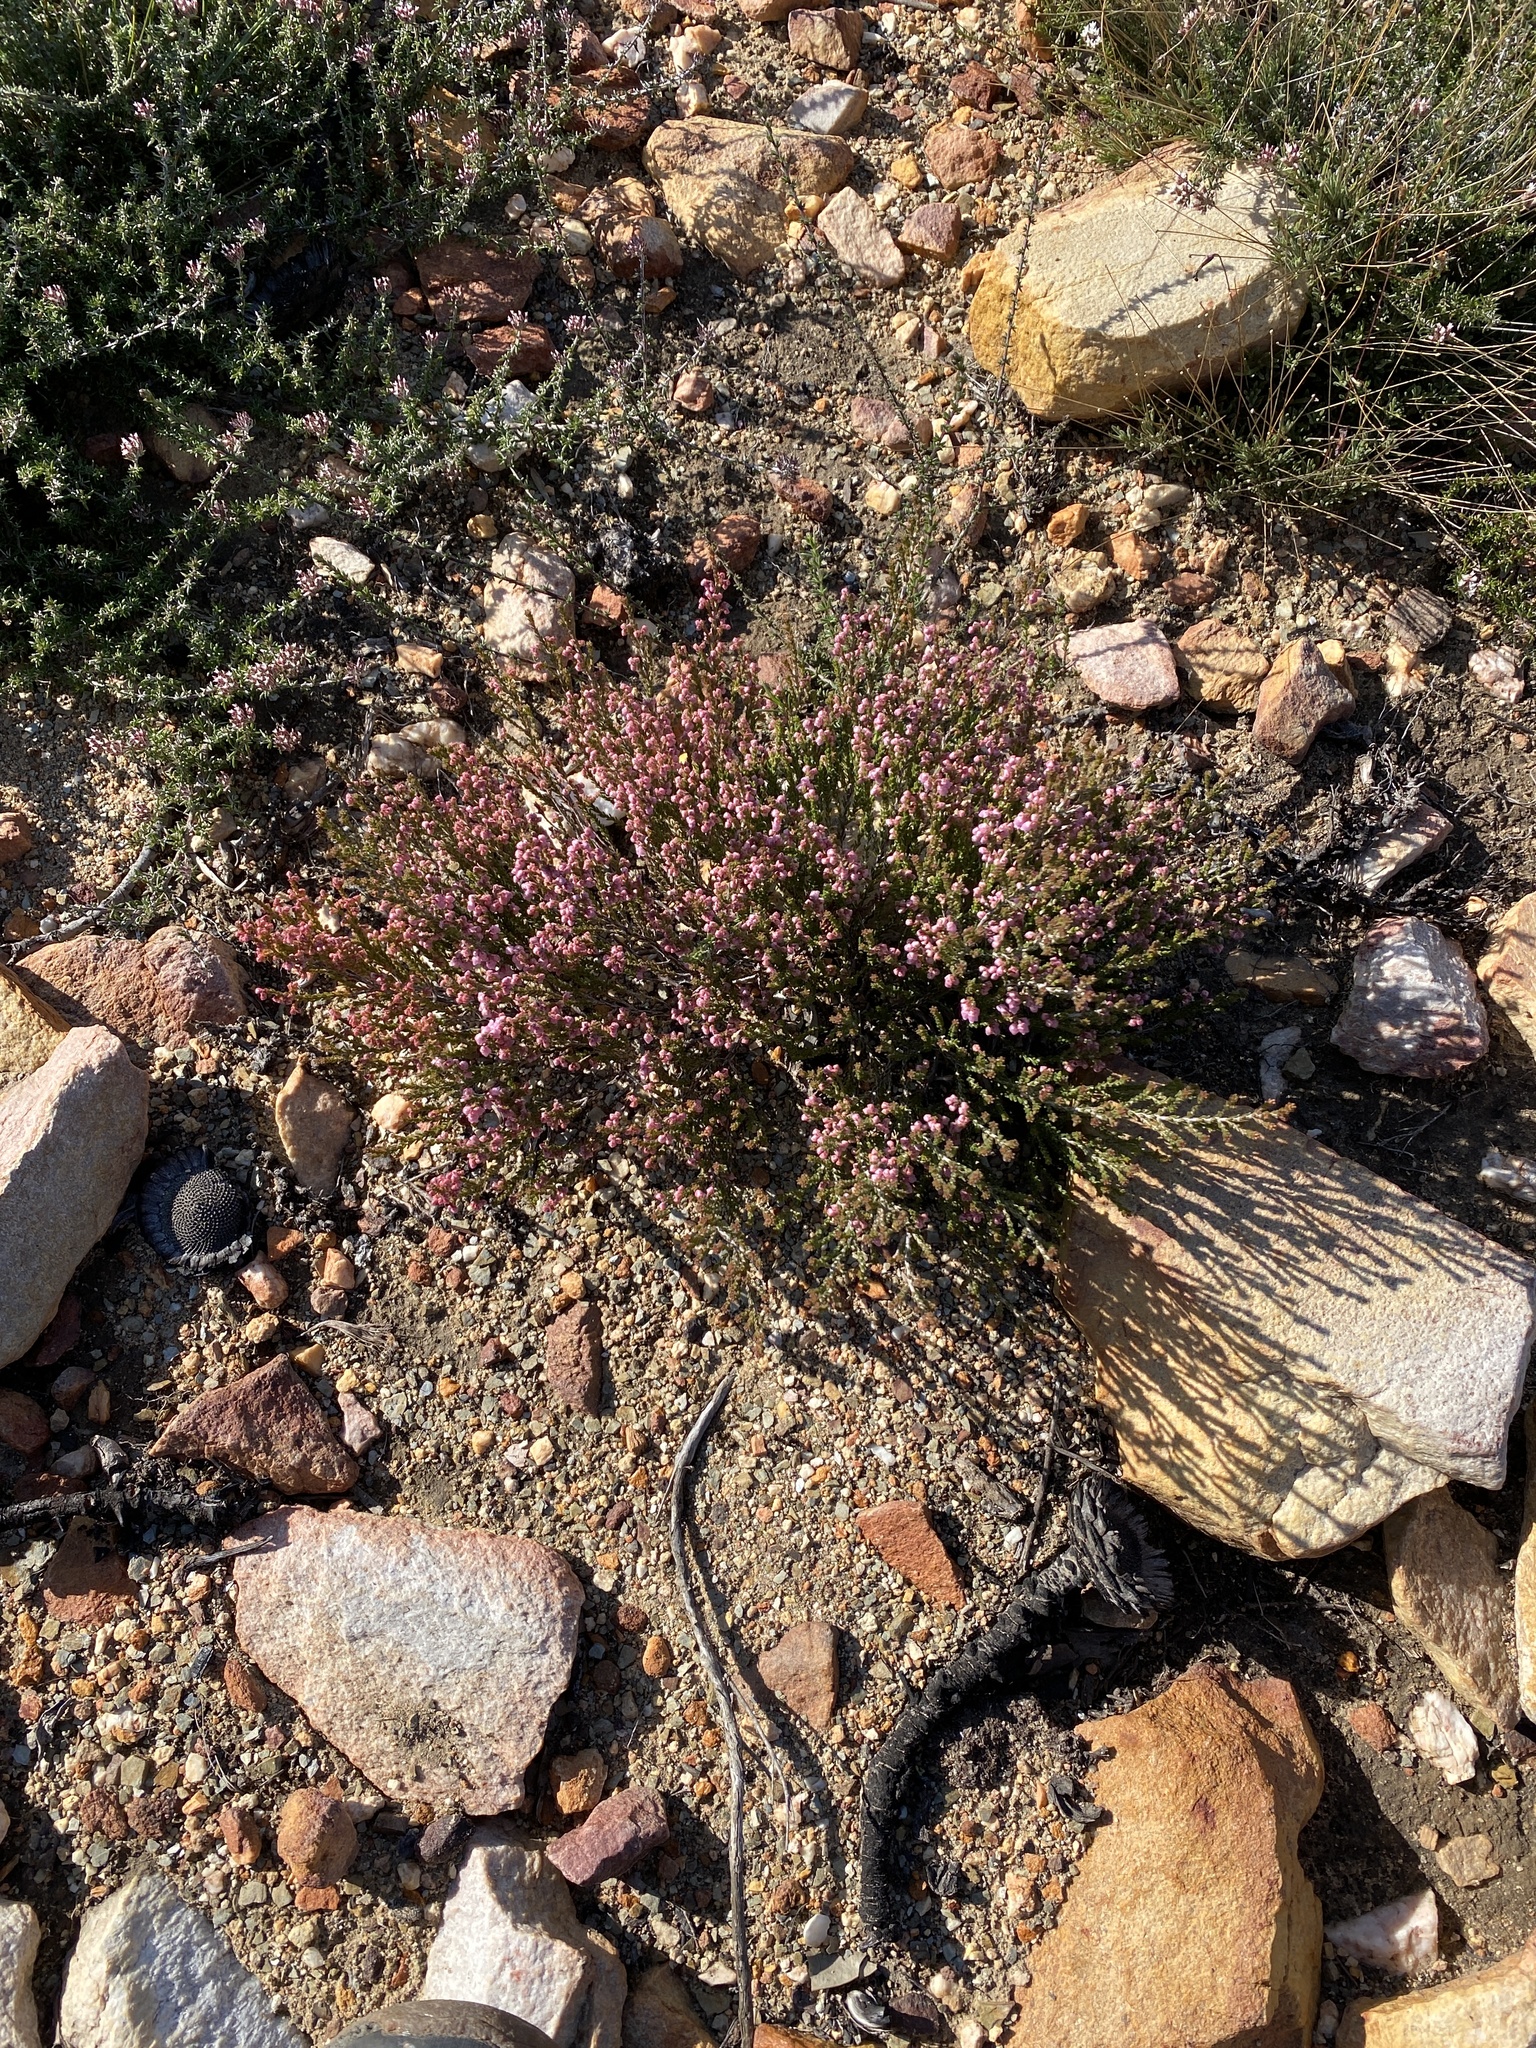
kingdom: Plantae
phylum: Tracheophyta
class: Magnoliopsida
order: Ericales
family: Ericaceae
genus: Erica
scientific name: Erica umbelliflora
